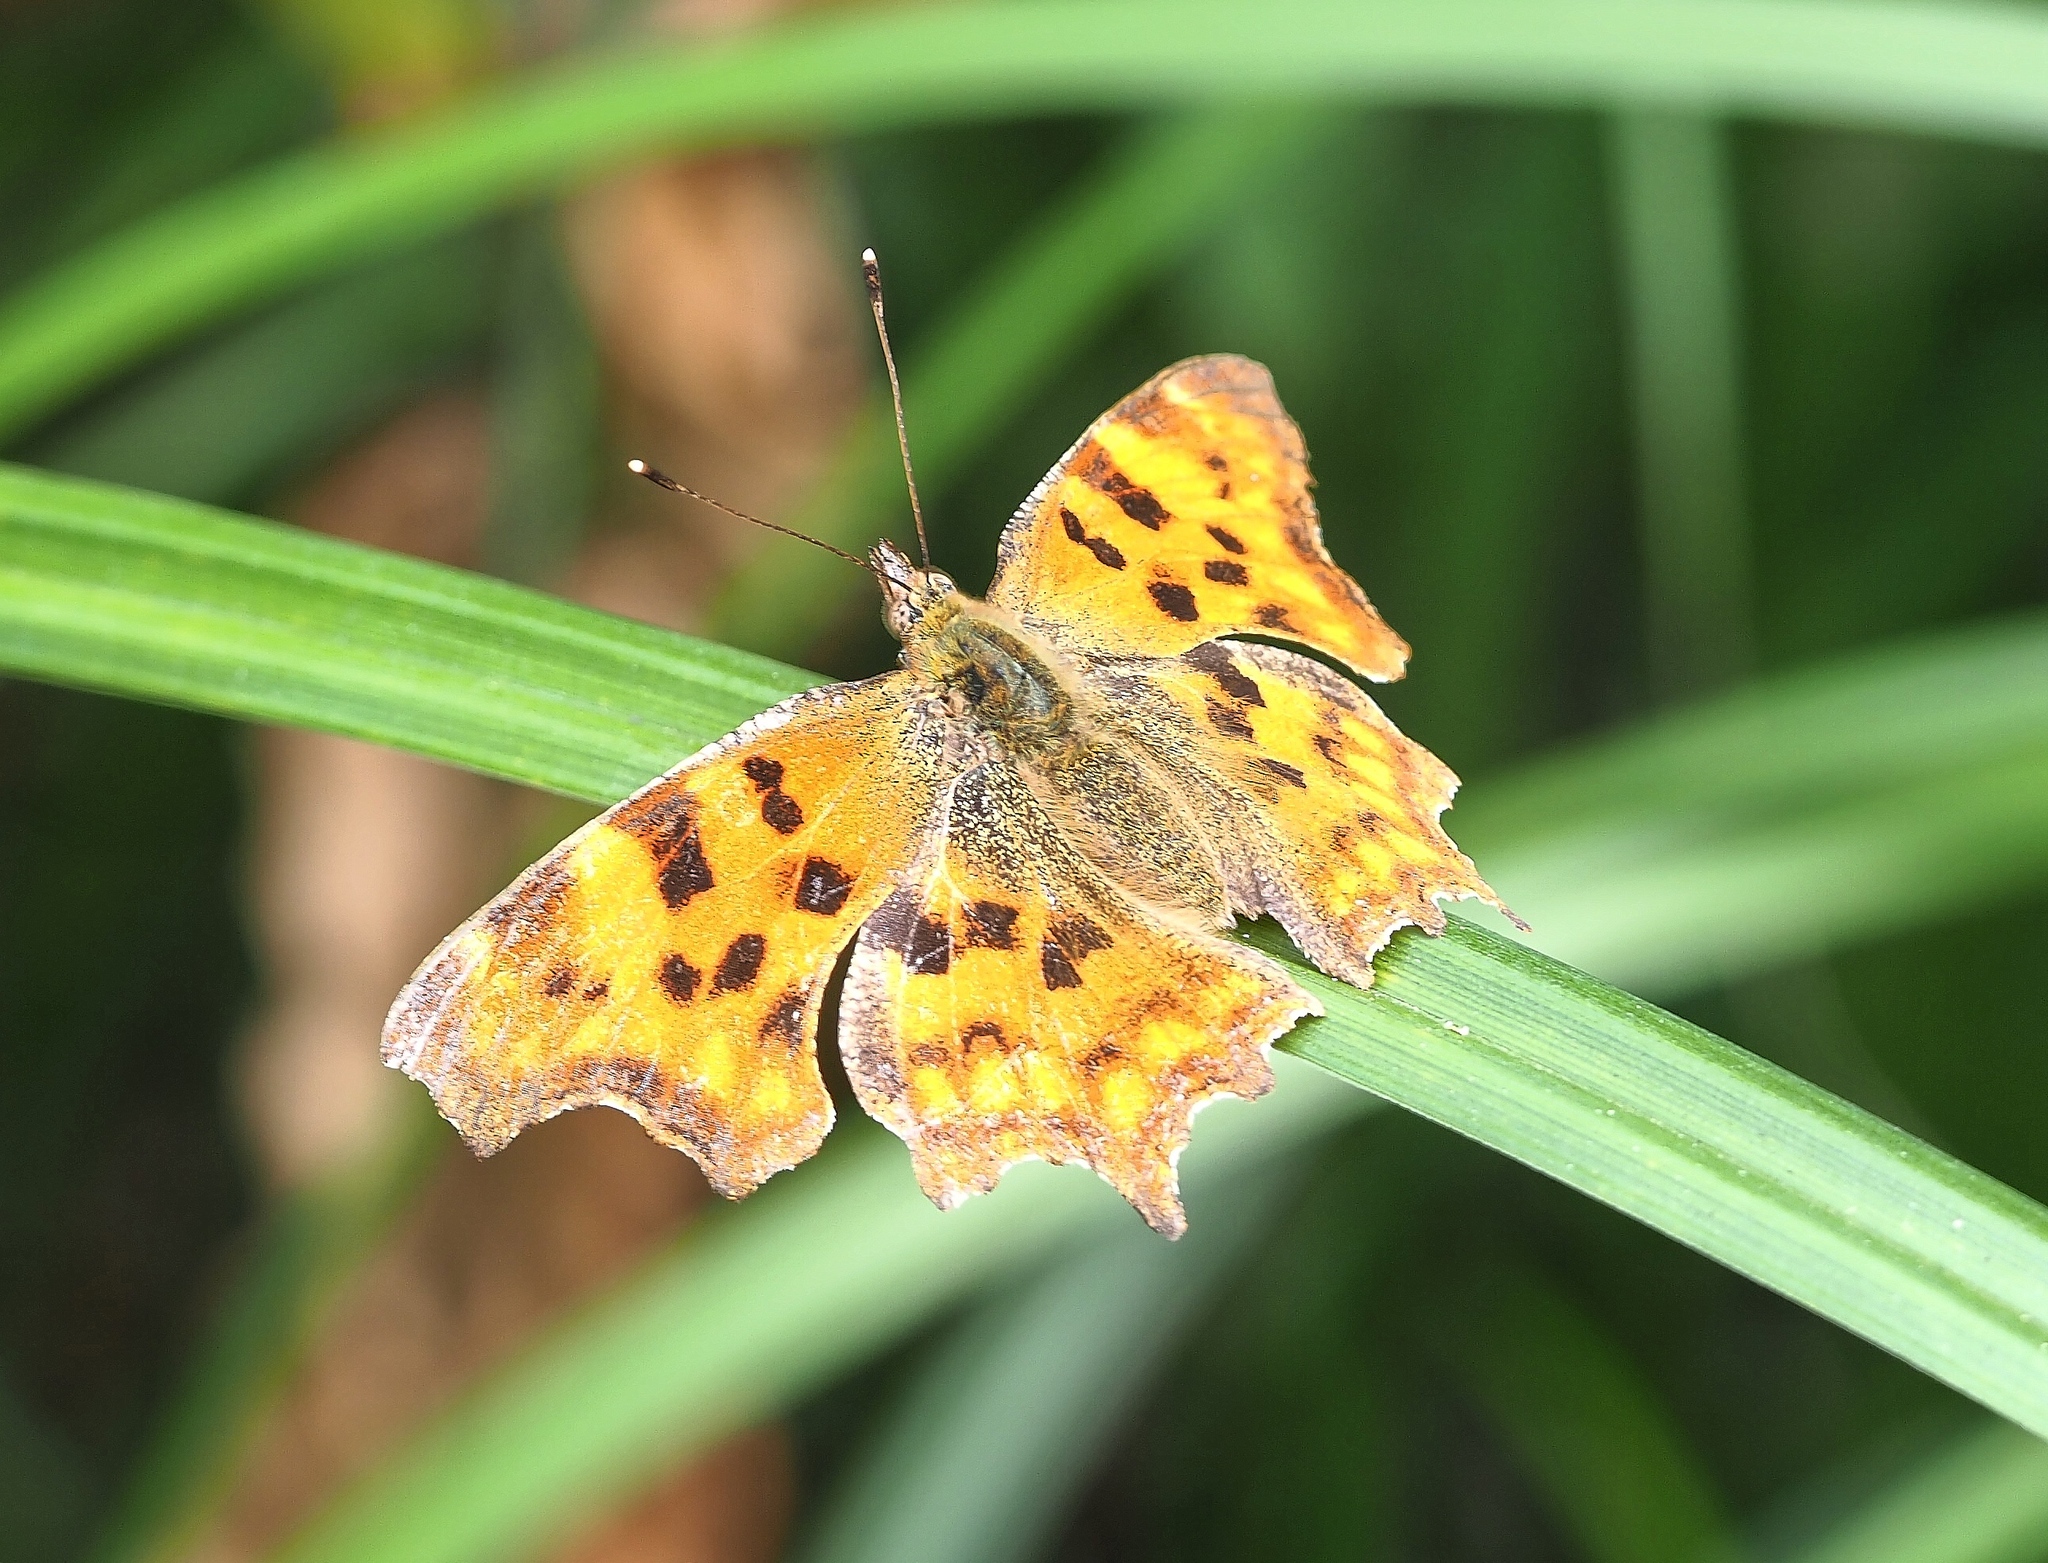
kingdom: Animalia
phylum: Arthropoda
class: Insecta
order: Lepidoptera
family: Nymphalidae
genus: Polygonia
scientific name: Polygonia c-album
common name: Comma
